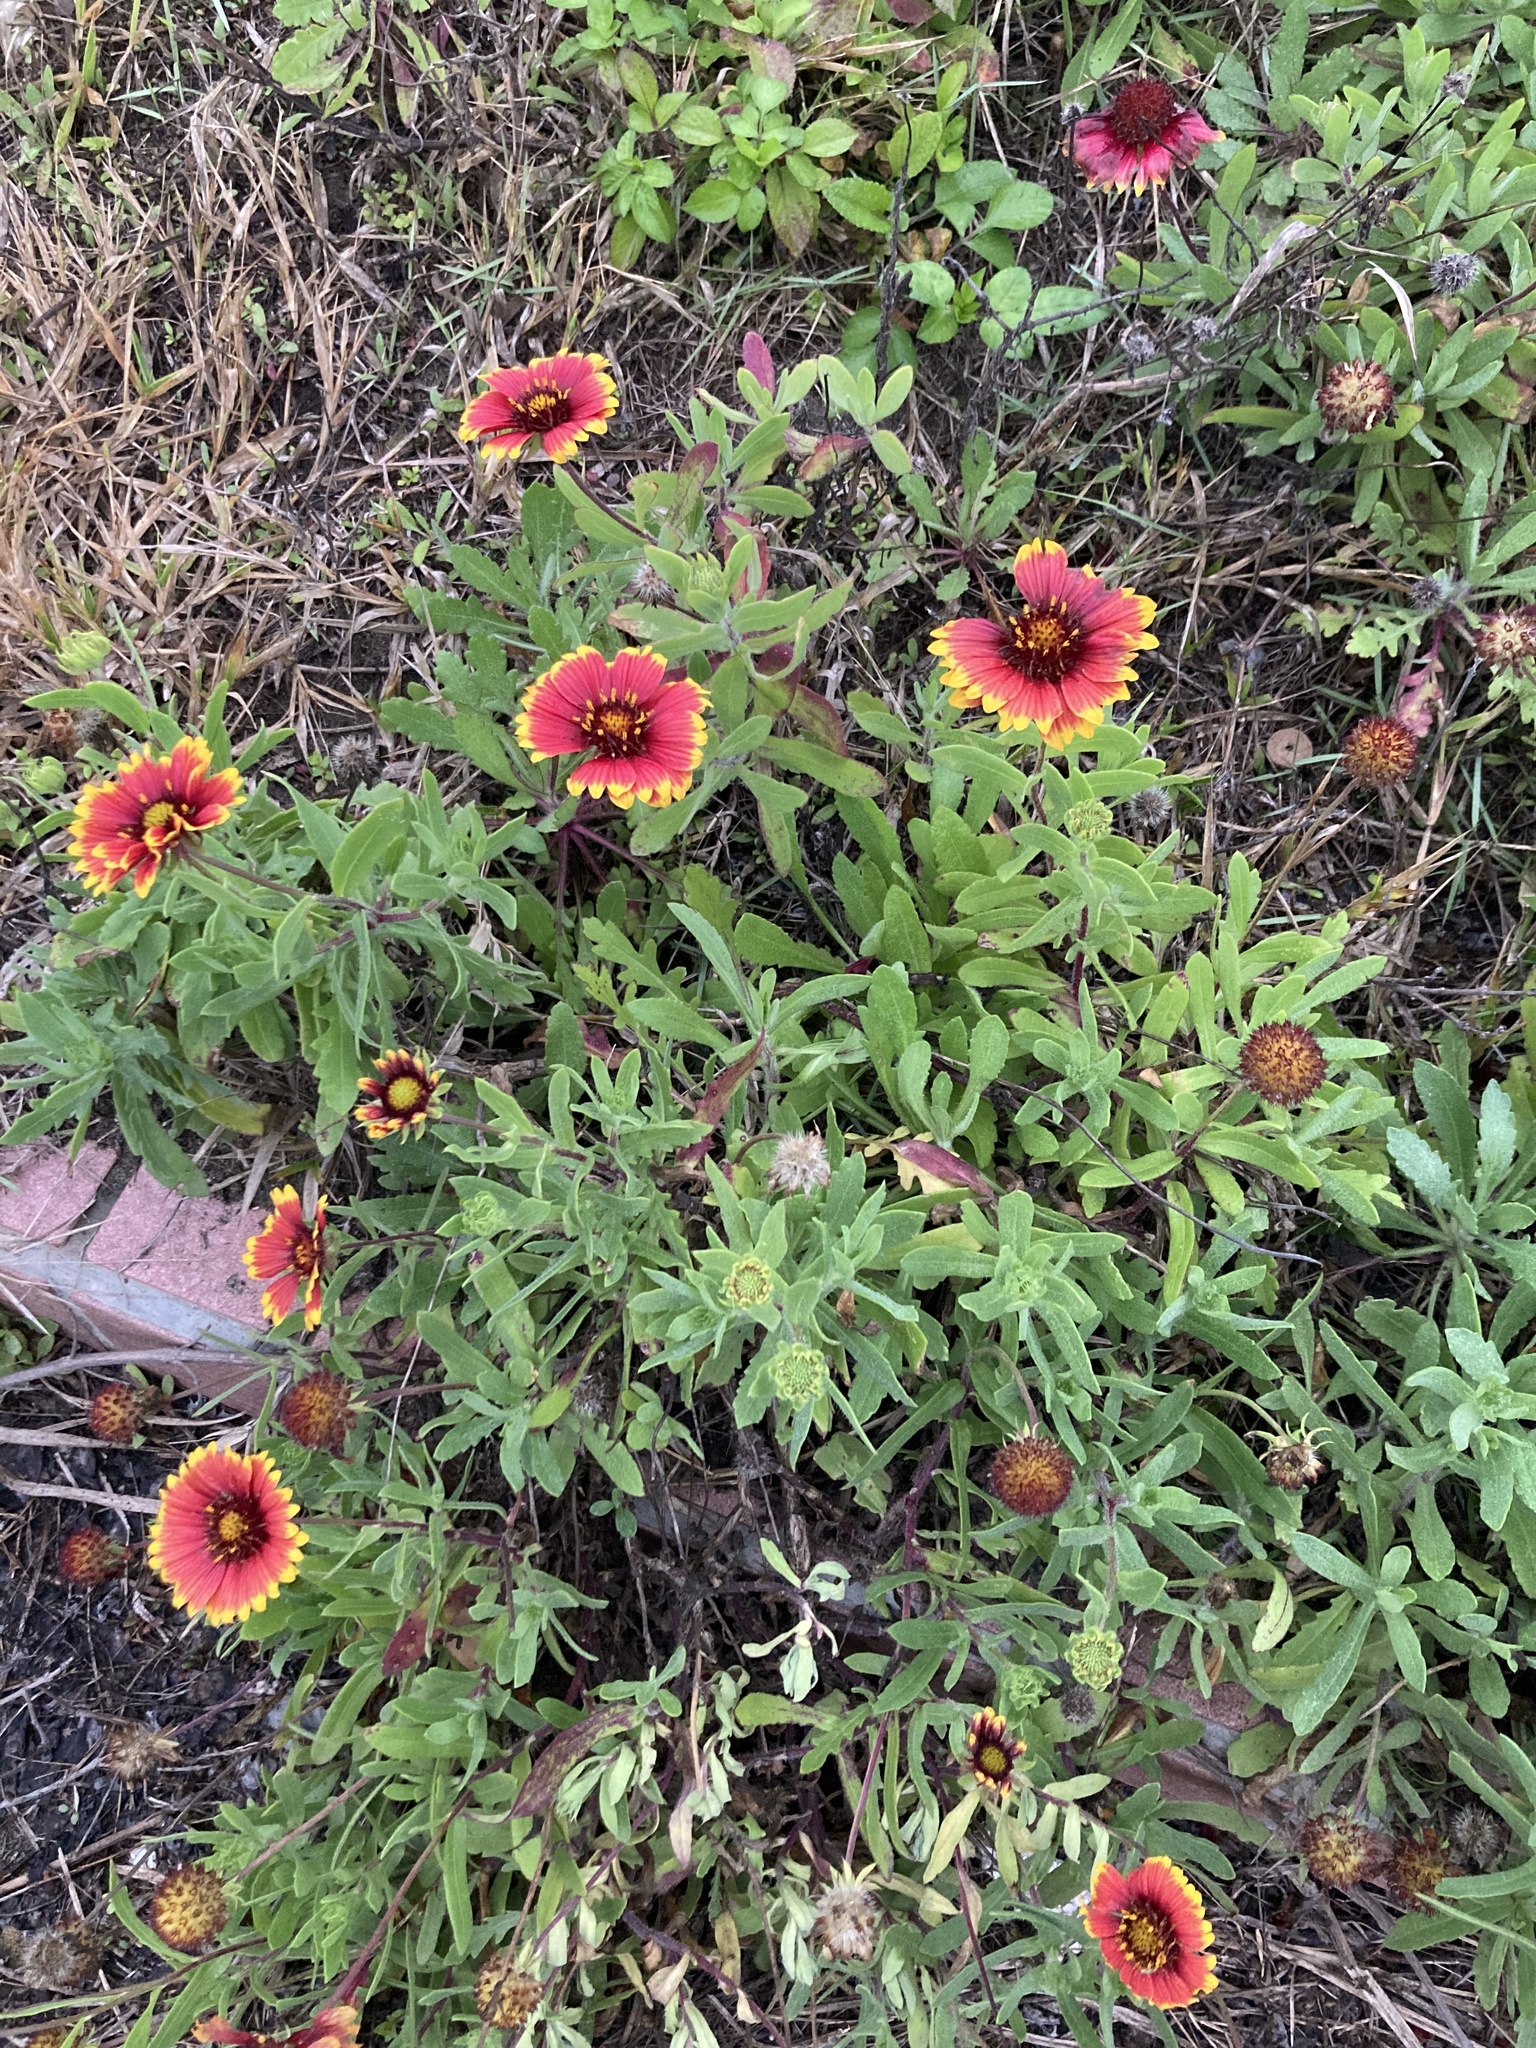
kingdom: Plantae
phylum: Tracheophyta
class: Magnoliopsida
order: Asterales
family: Asteraceae
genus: Gaillardia
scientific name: Gaillardia pulchella
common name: Firewheel
